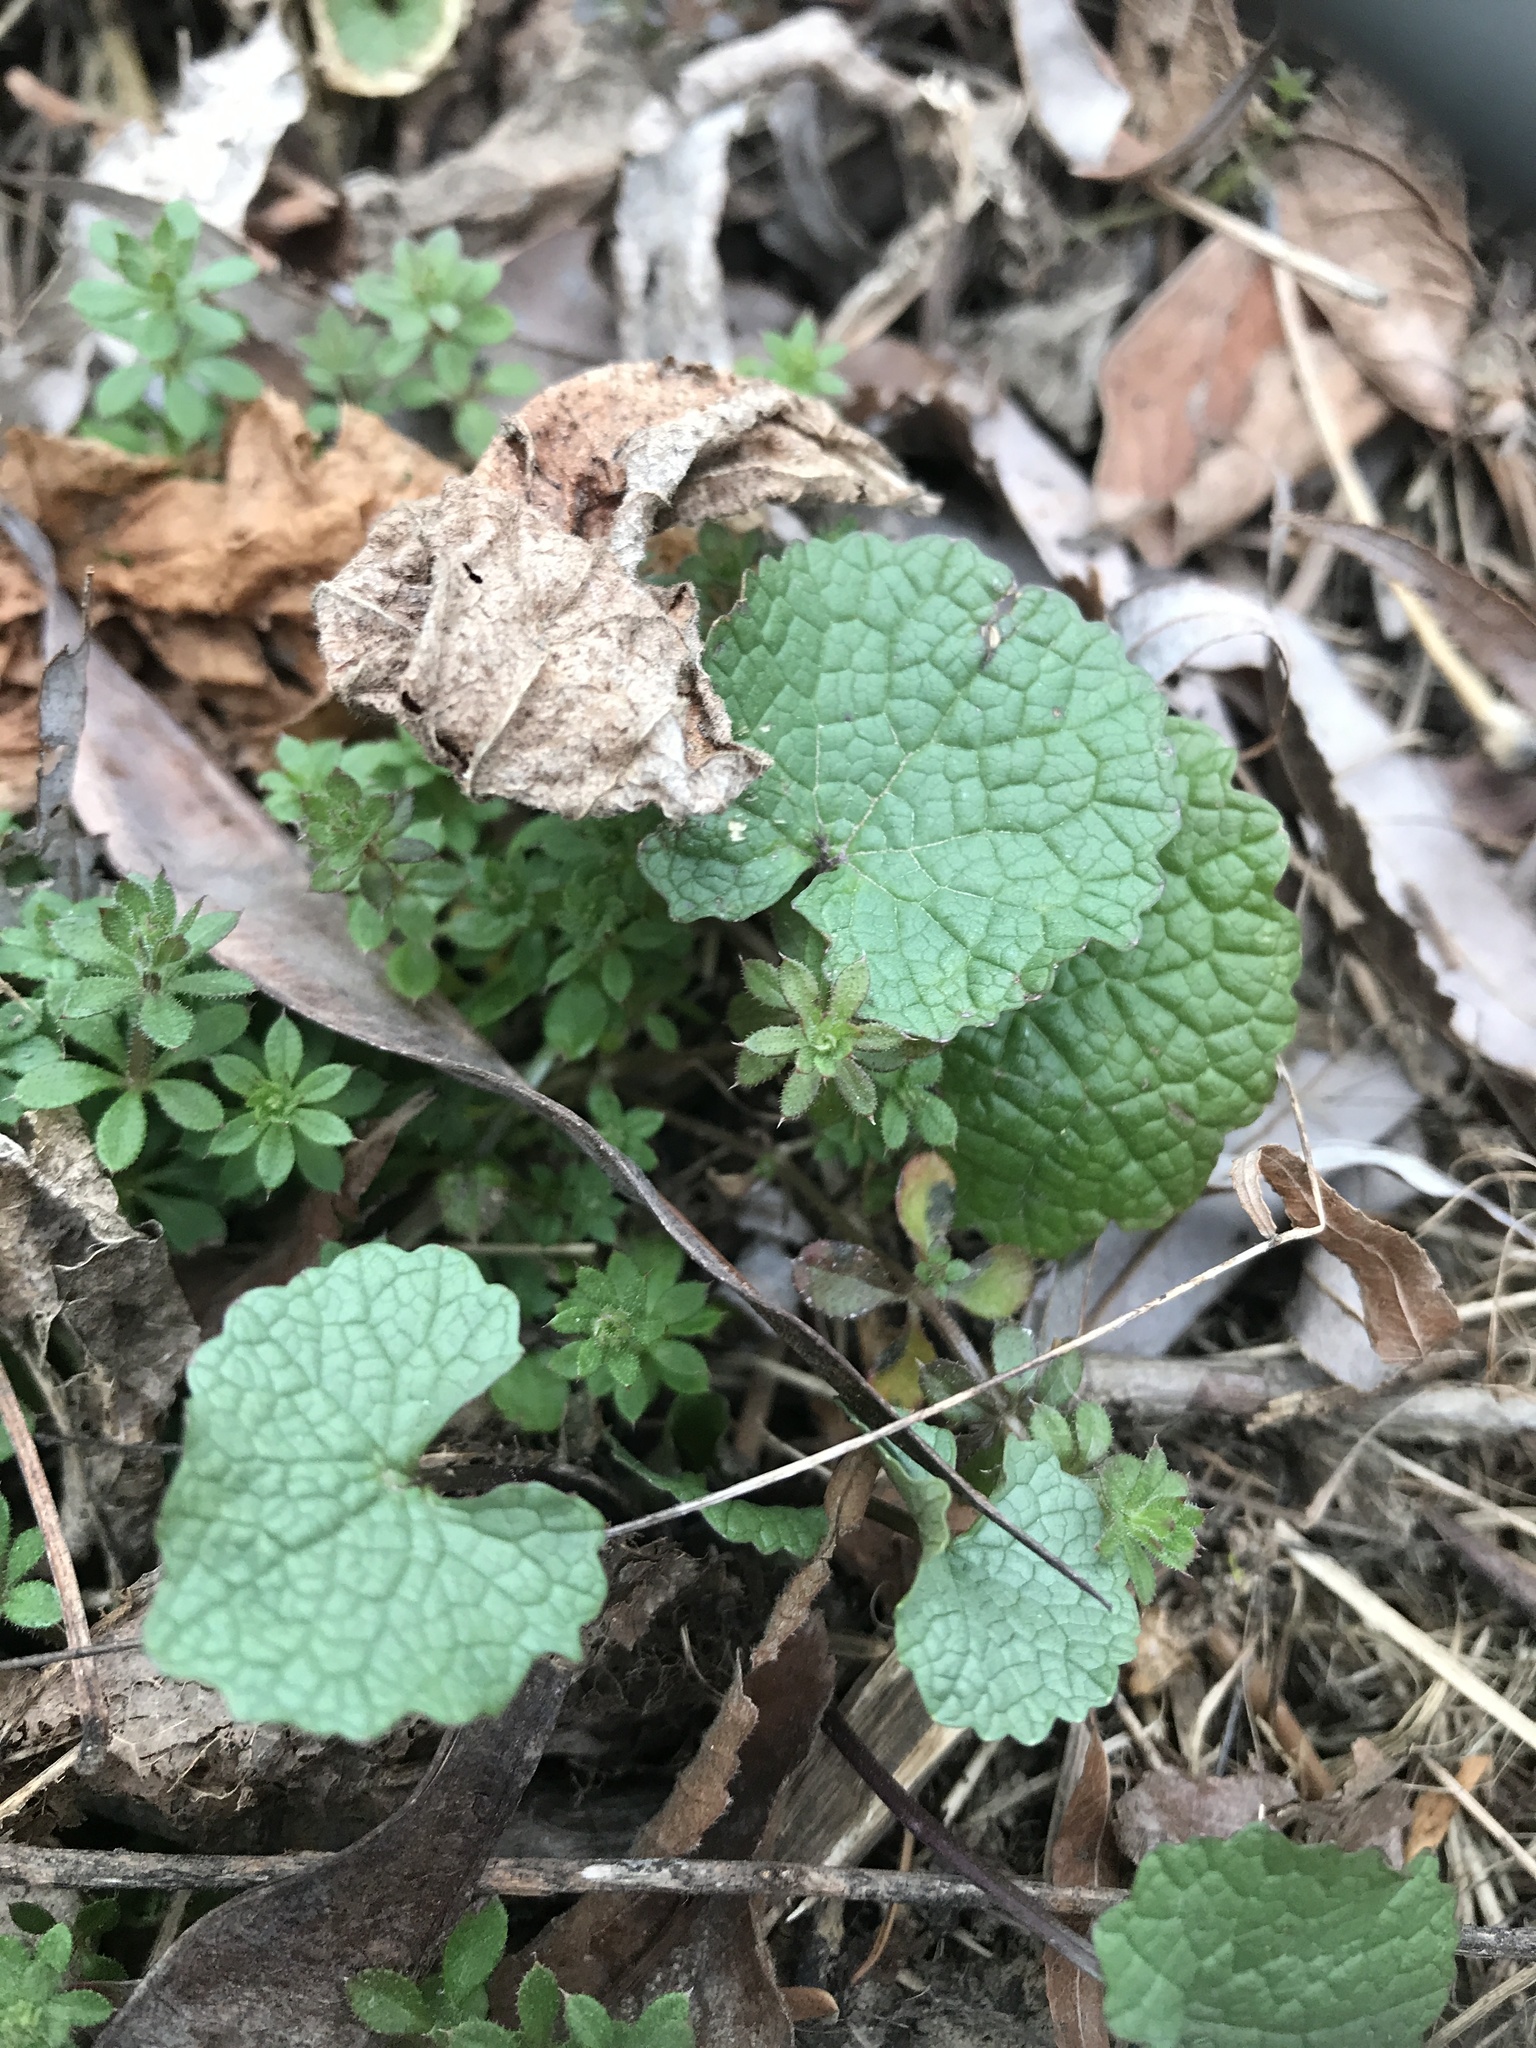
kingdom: Plantae
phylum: Tracheophyta
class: Magnoliopsida
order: Brassicales
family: Brassicaceae
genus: Alliaria
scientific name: Alliaria petiolata
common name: Garlic mustard
